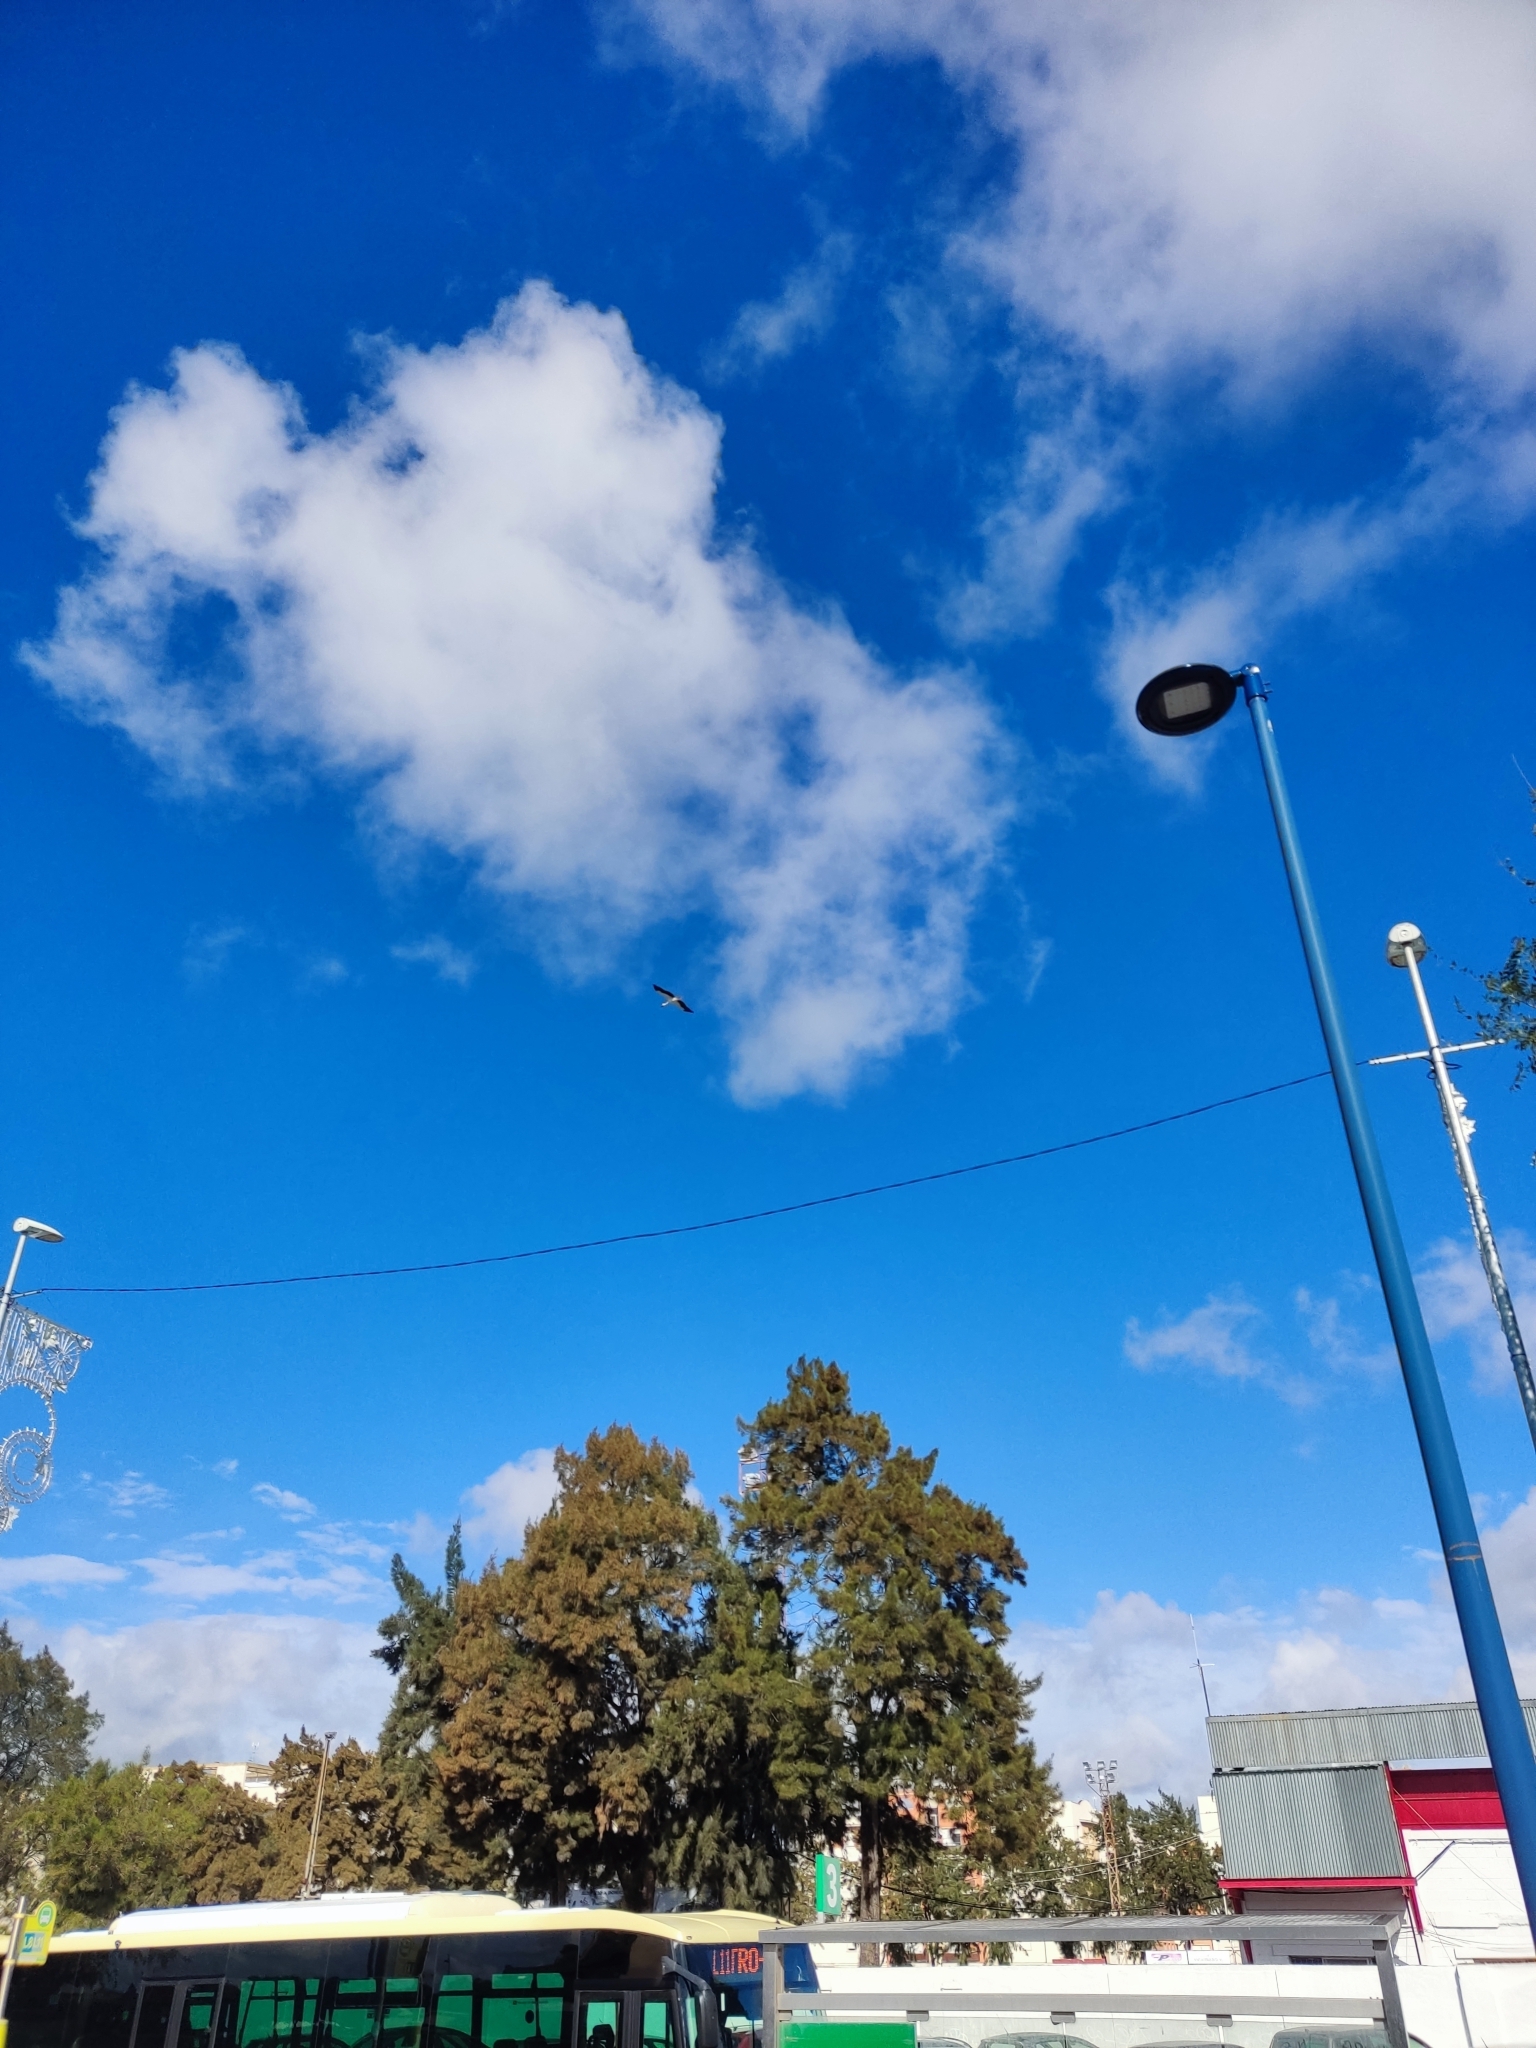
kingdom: Animalia
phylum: Chordata
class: Aves
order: Ciconiiformes
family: Ciconiidae
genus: Ciconia
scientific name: Ciconia ciconia
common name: White stork
